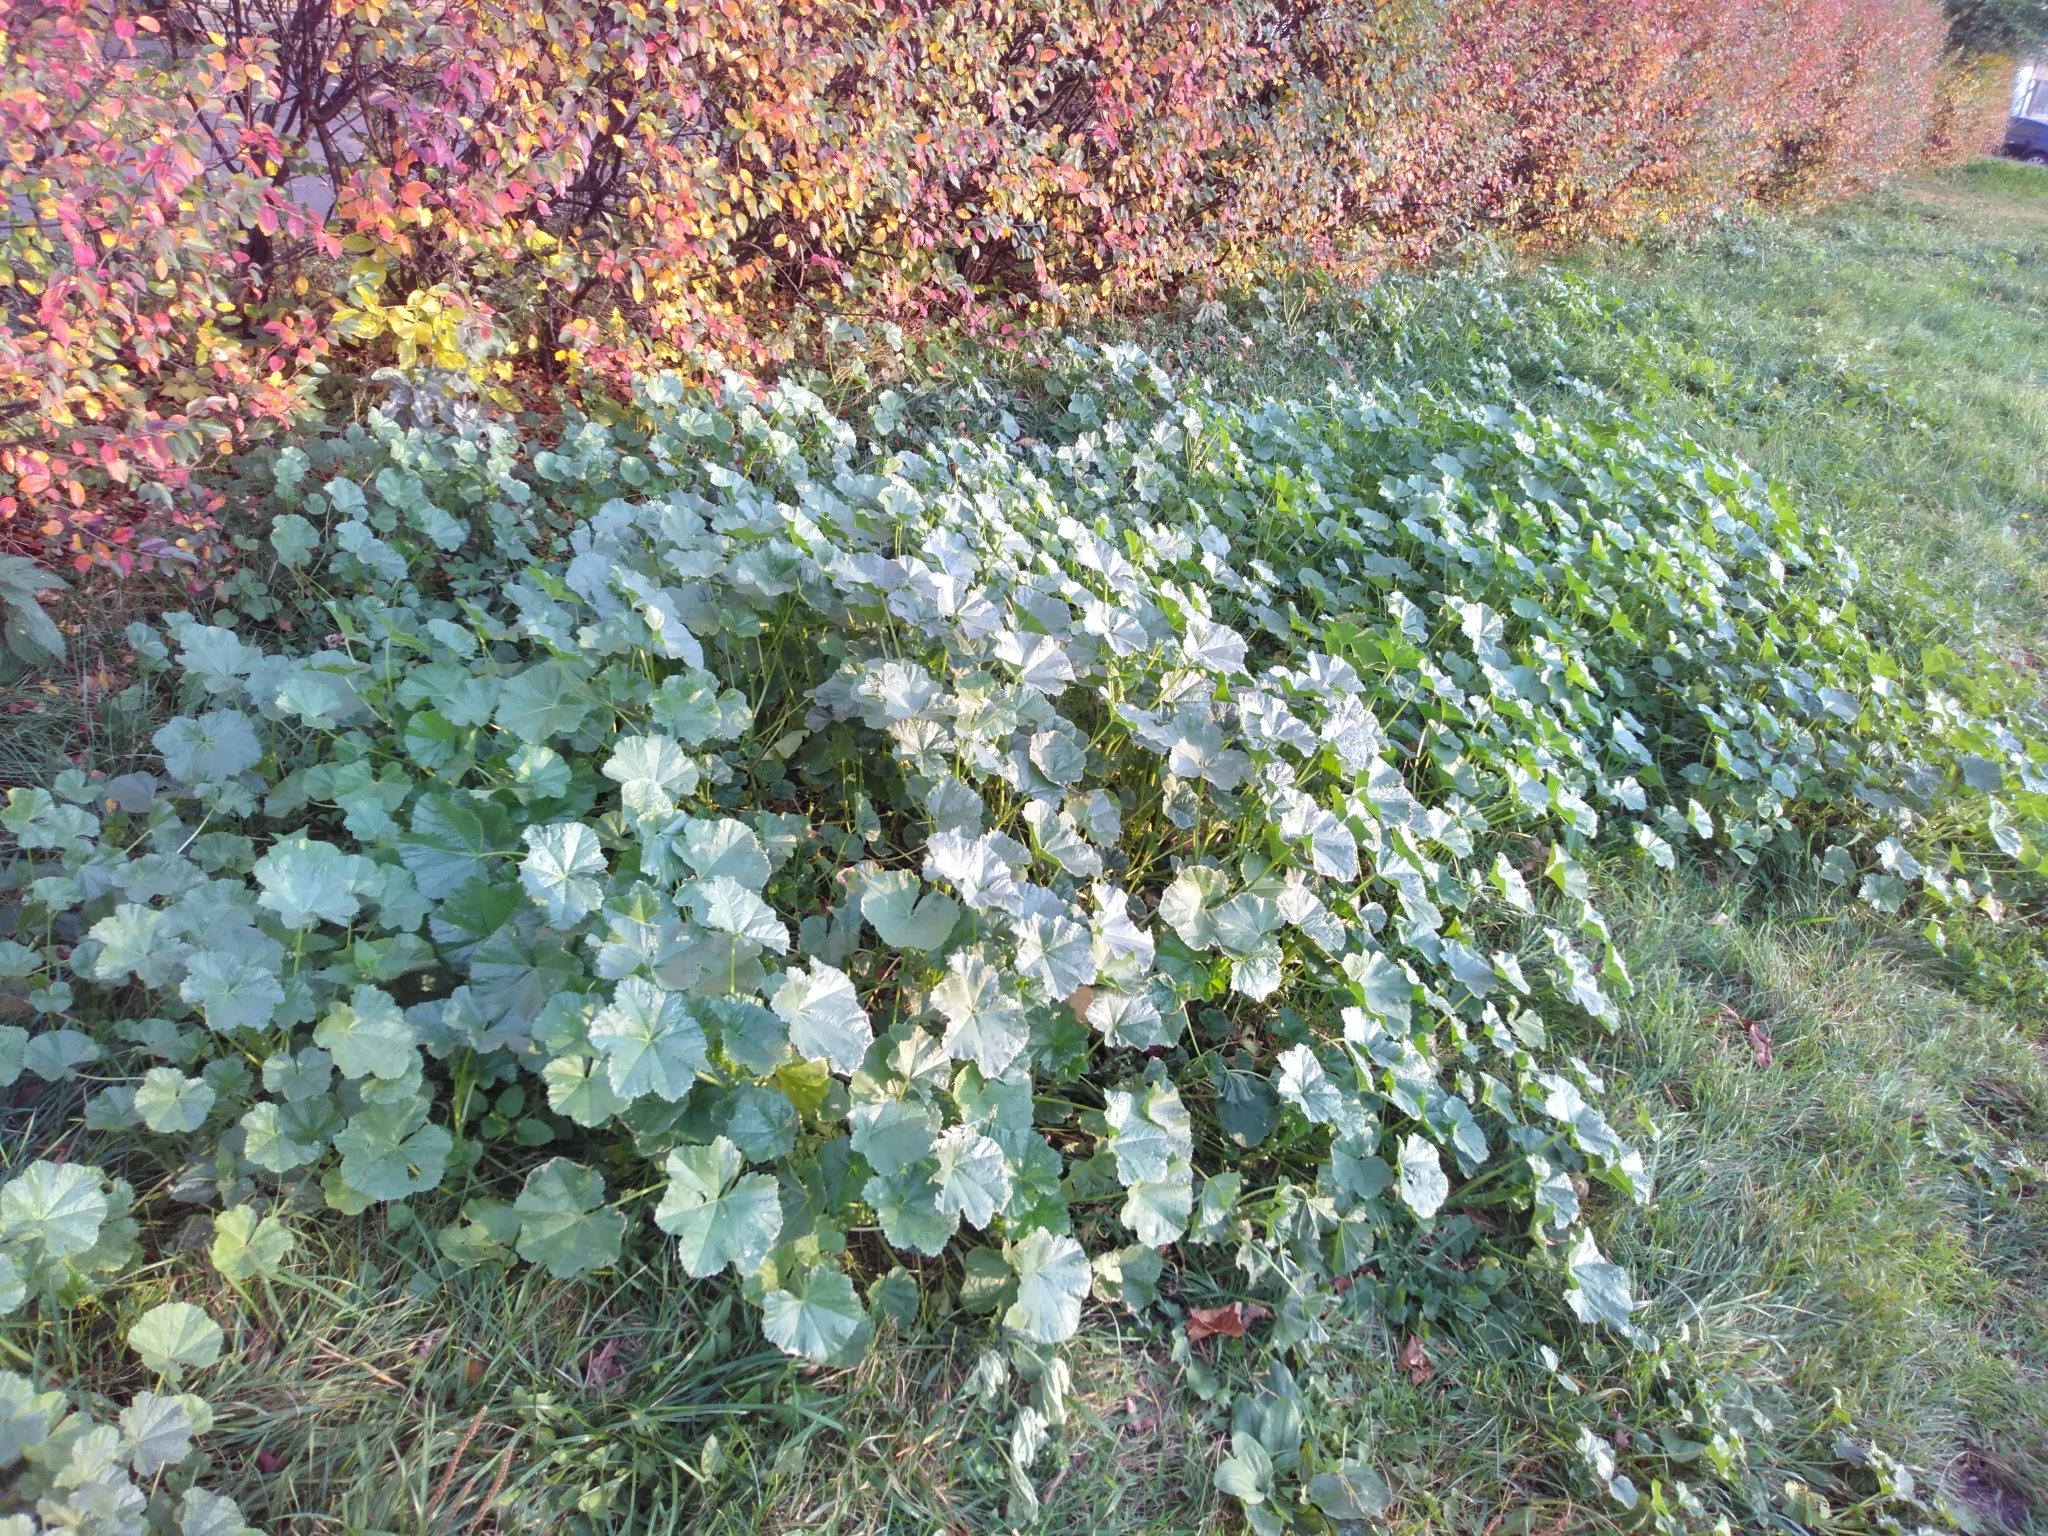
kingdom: Plantae
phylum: Tracheophyta
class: Magnoliopsida
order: Malvales
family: Malvaceae
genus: Malva
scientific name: Malva pusilla
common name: Small mallow
